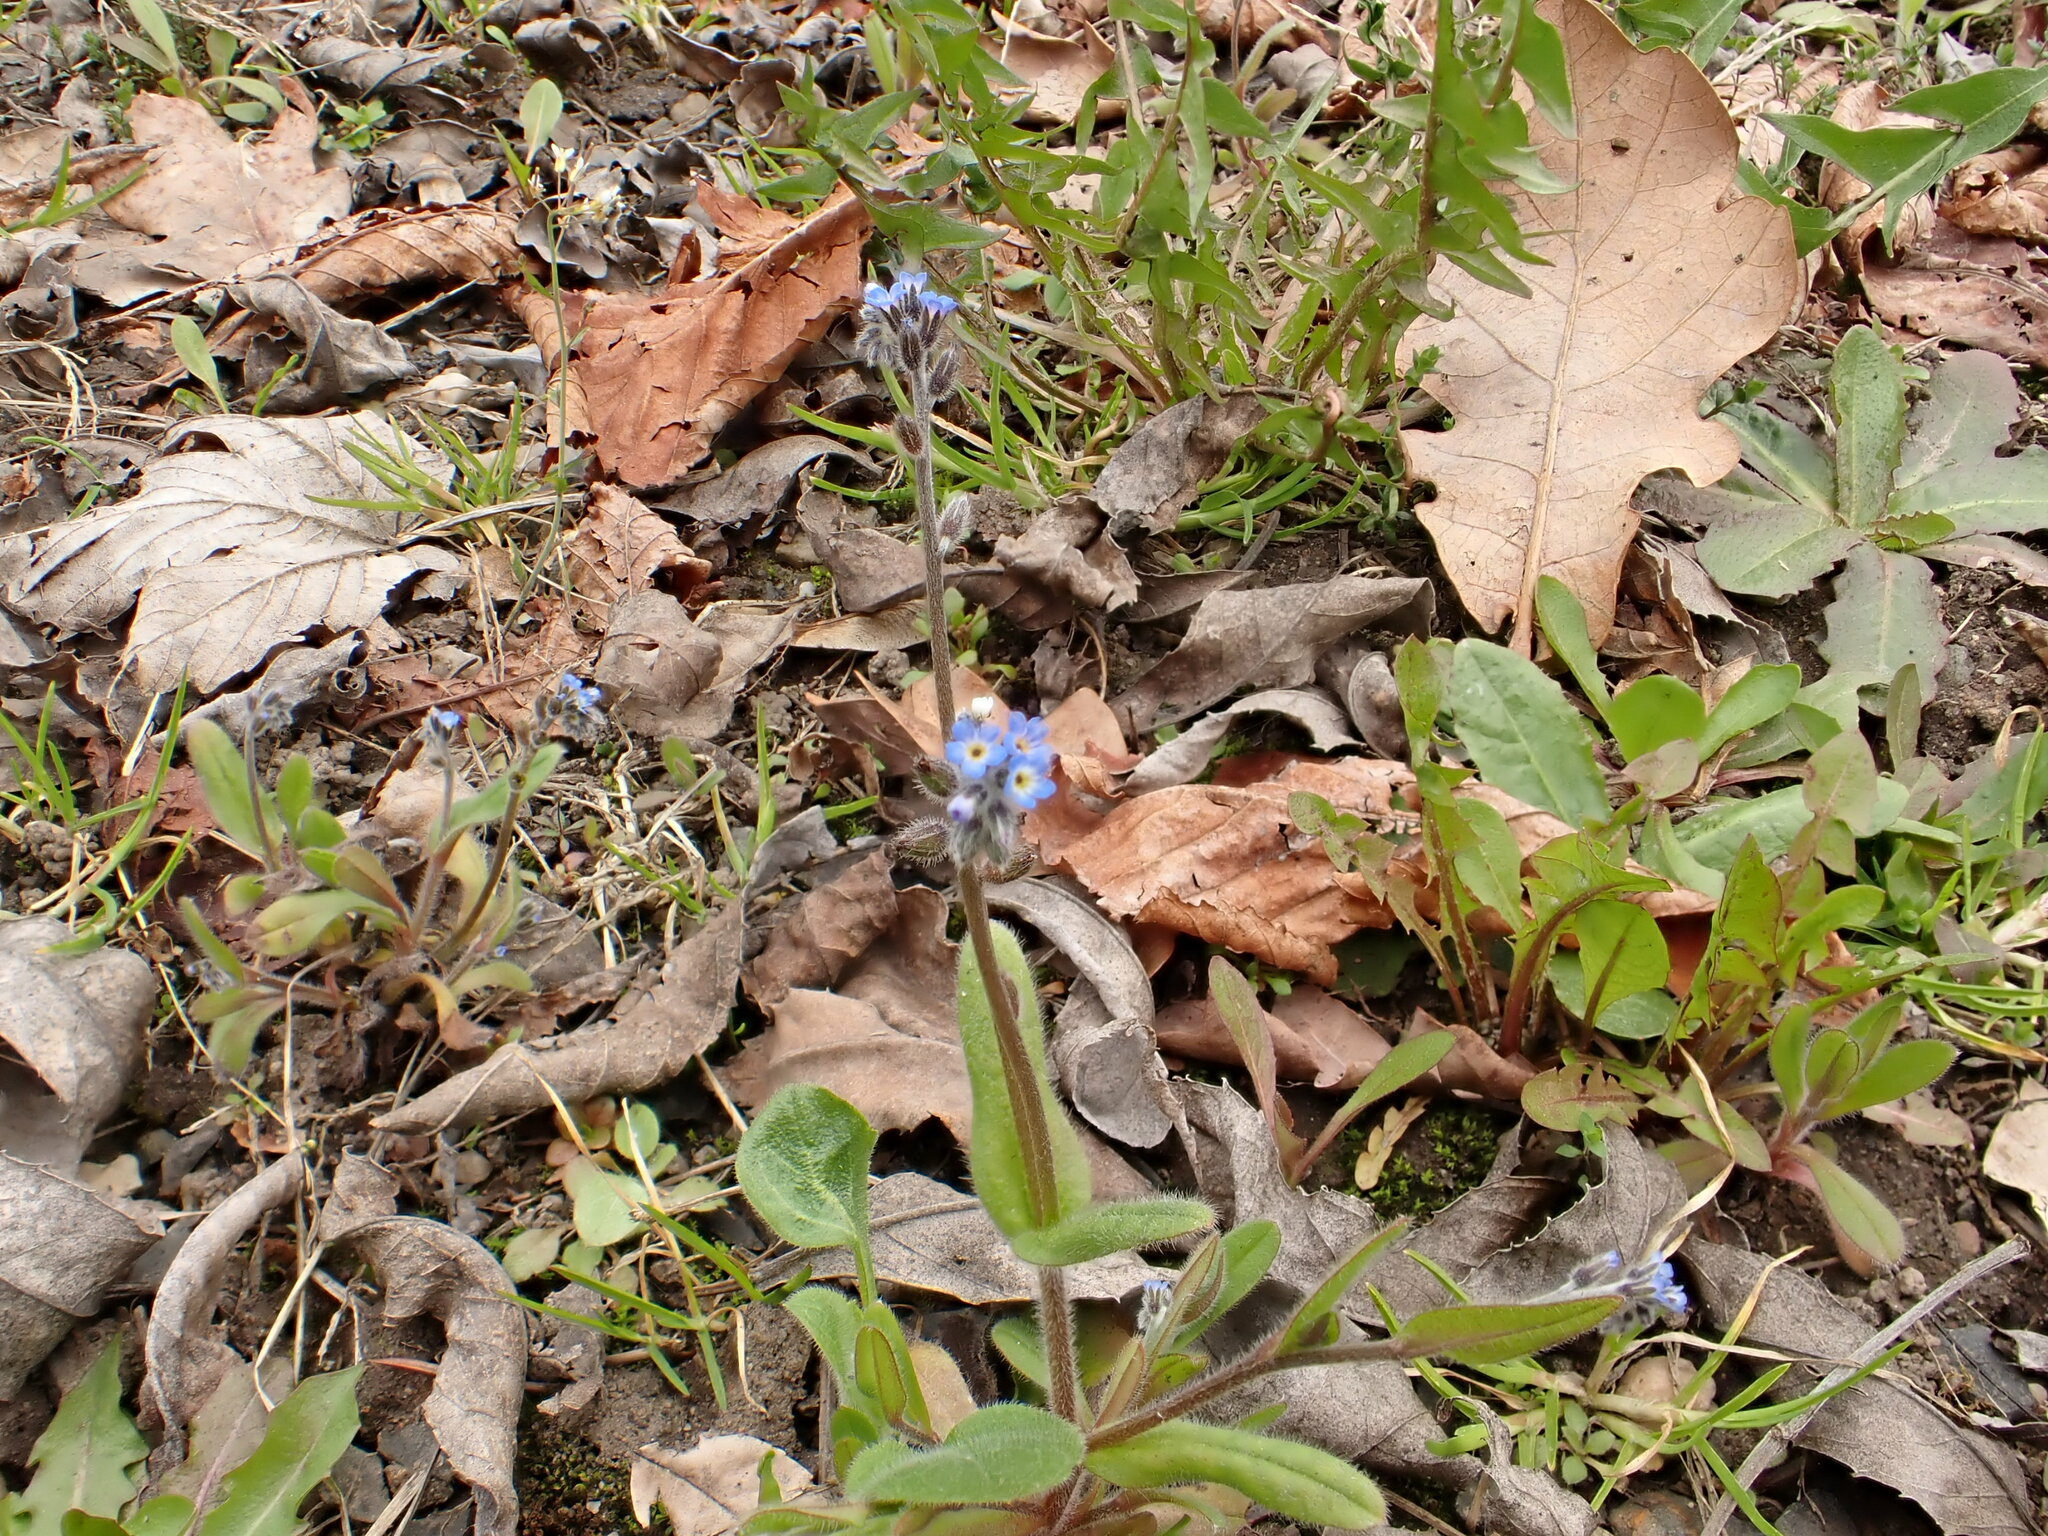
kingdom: Plantae
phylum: Tracheophyta
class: Magnoliopsida
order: Boraginales
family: Boraginaceae
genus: Myosotis
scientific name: Myosotis ramosissima
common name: Early forget-me-not
